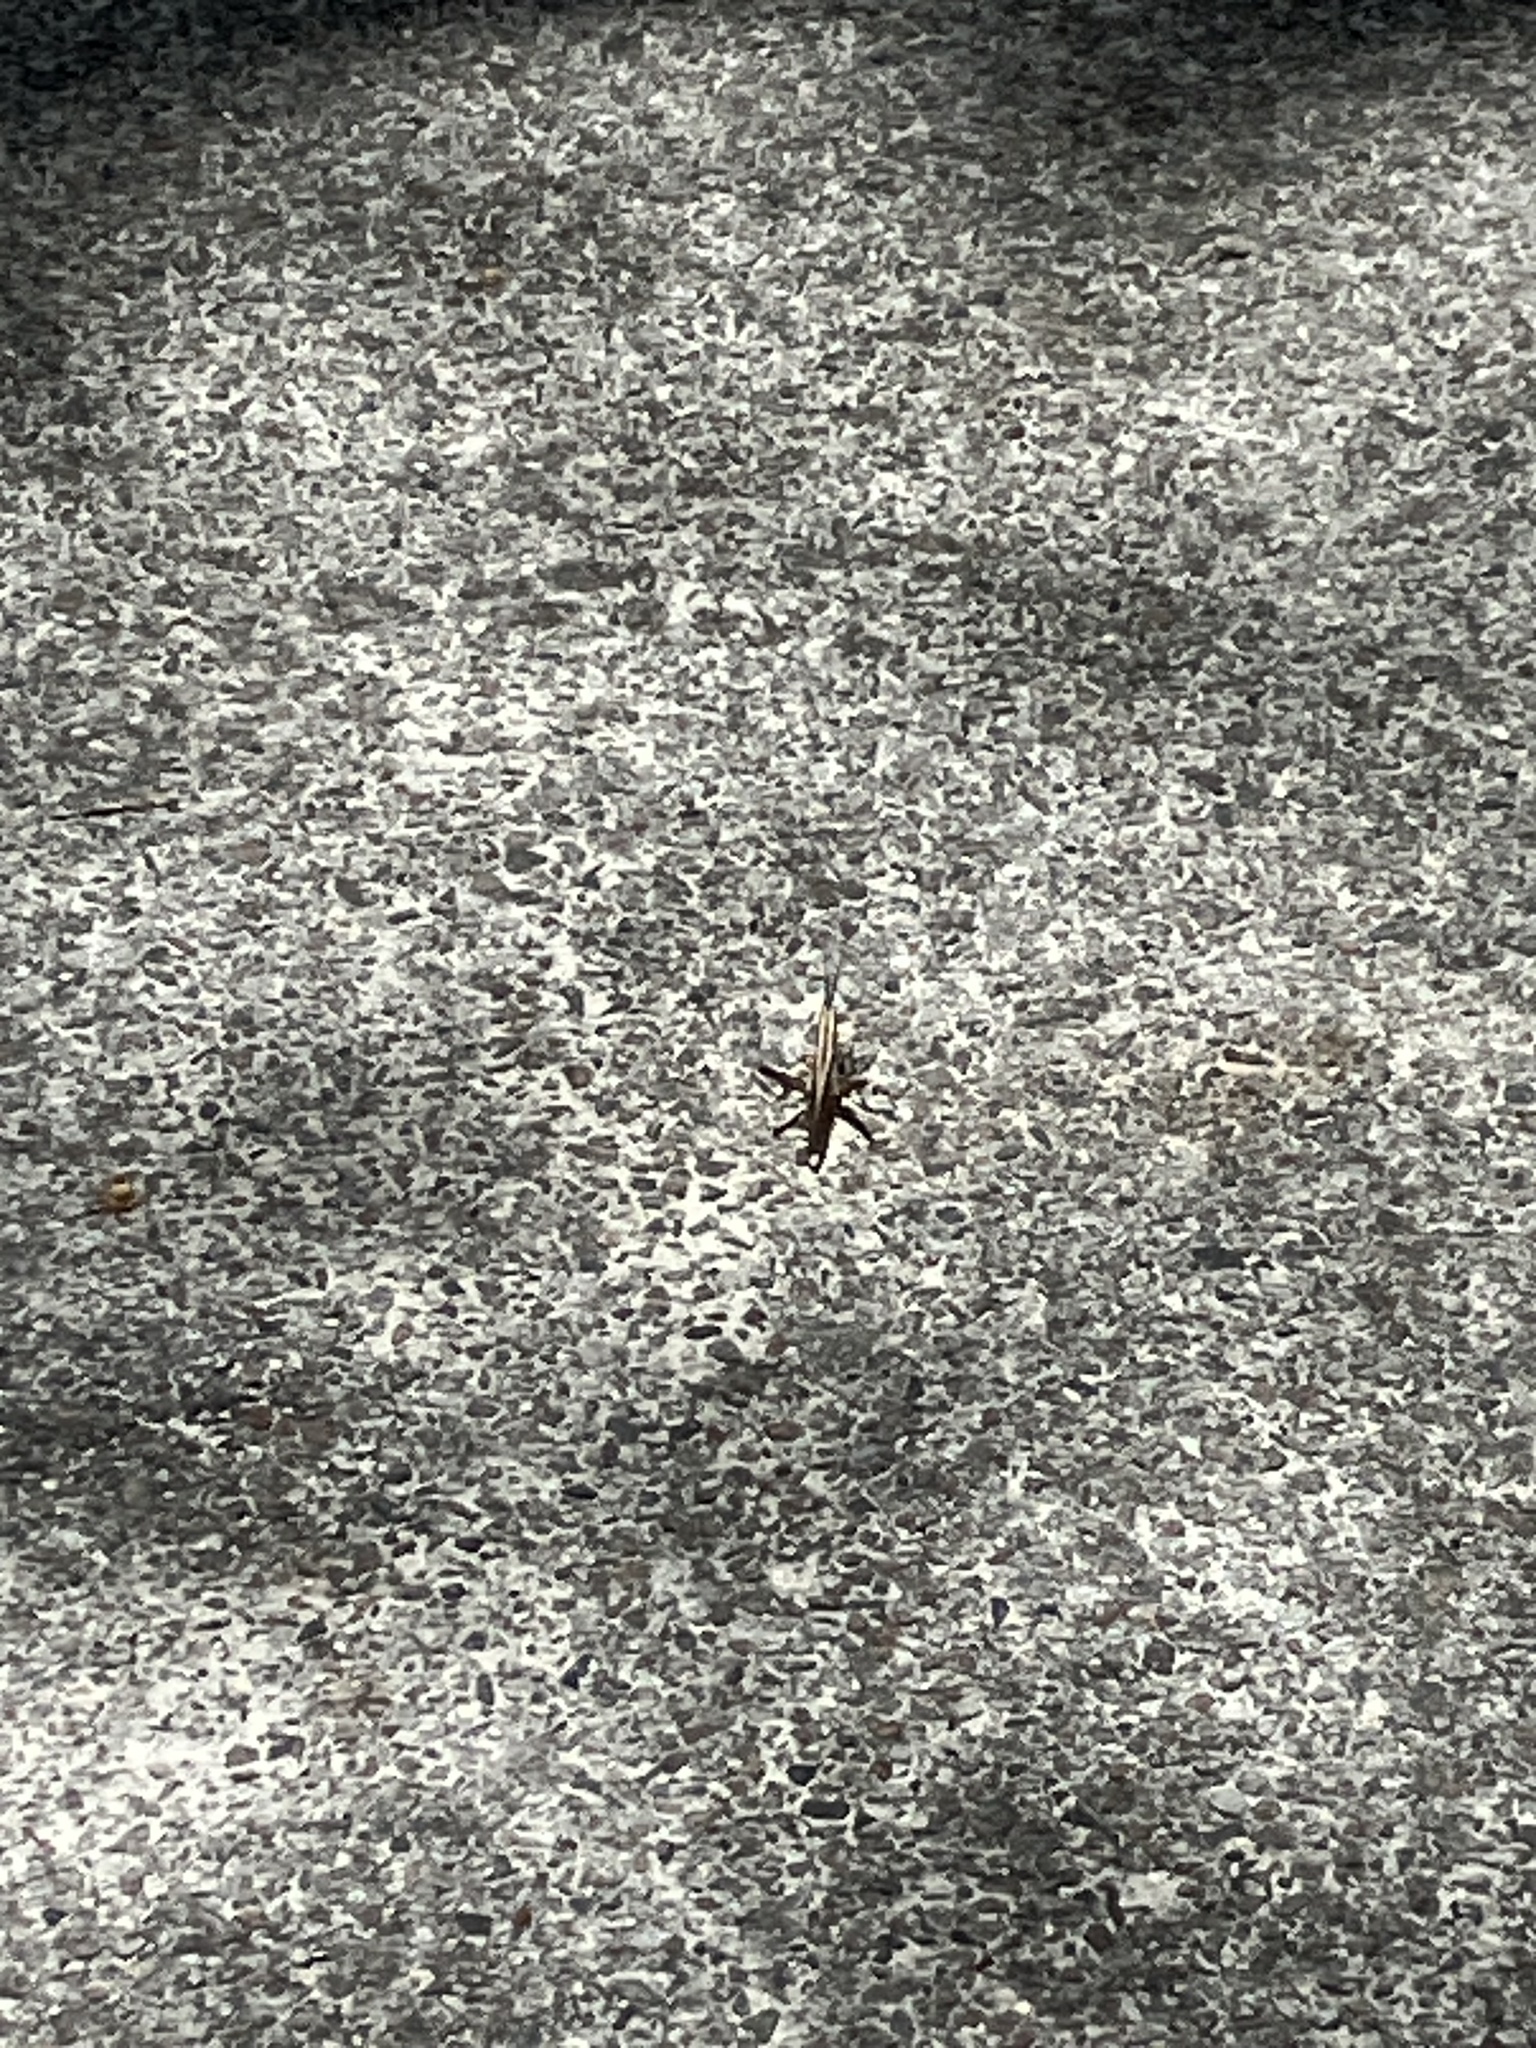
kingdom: Animalia
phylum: Arthropoda
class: Insecta
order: Orthoptera
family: Acrididae
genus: Mermiria
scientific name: Mermiria intertexta
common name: Eastern mermiria grasshopper
